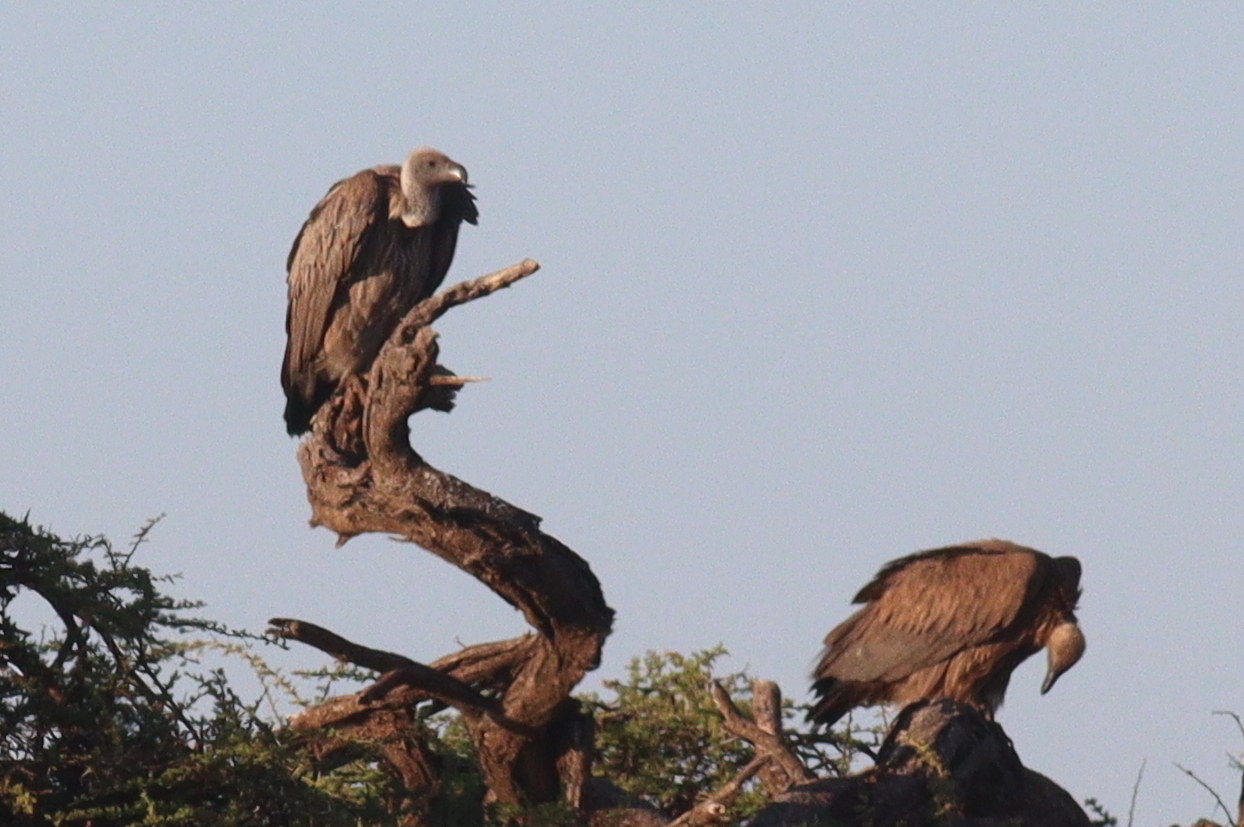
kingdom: Animalia
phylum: Chordata
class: Aves
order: Accipitriformes
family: Accipitridae
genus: Gyps
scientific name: Gyps africanus
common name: White-backed vulture
